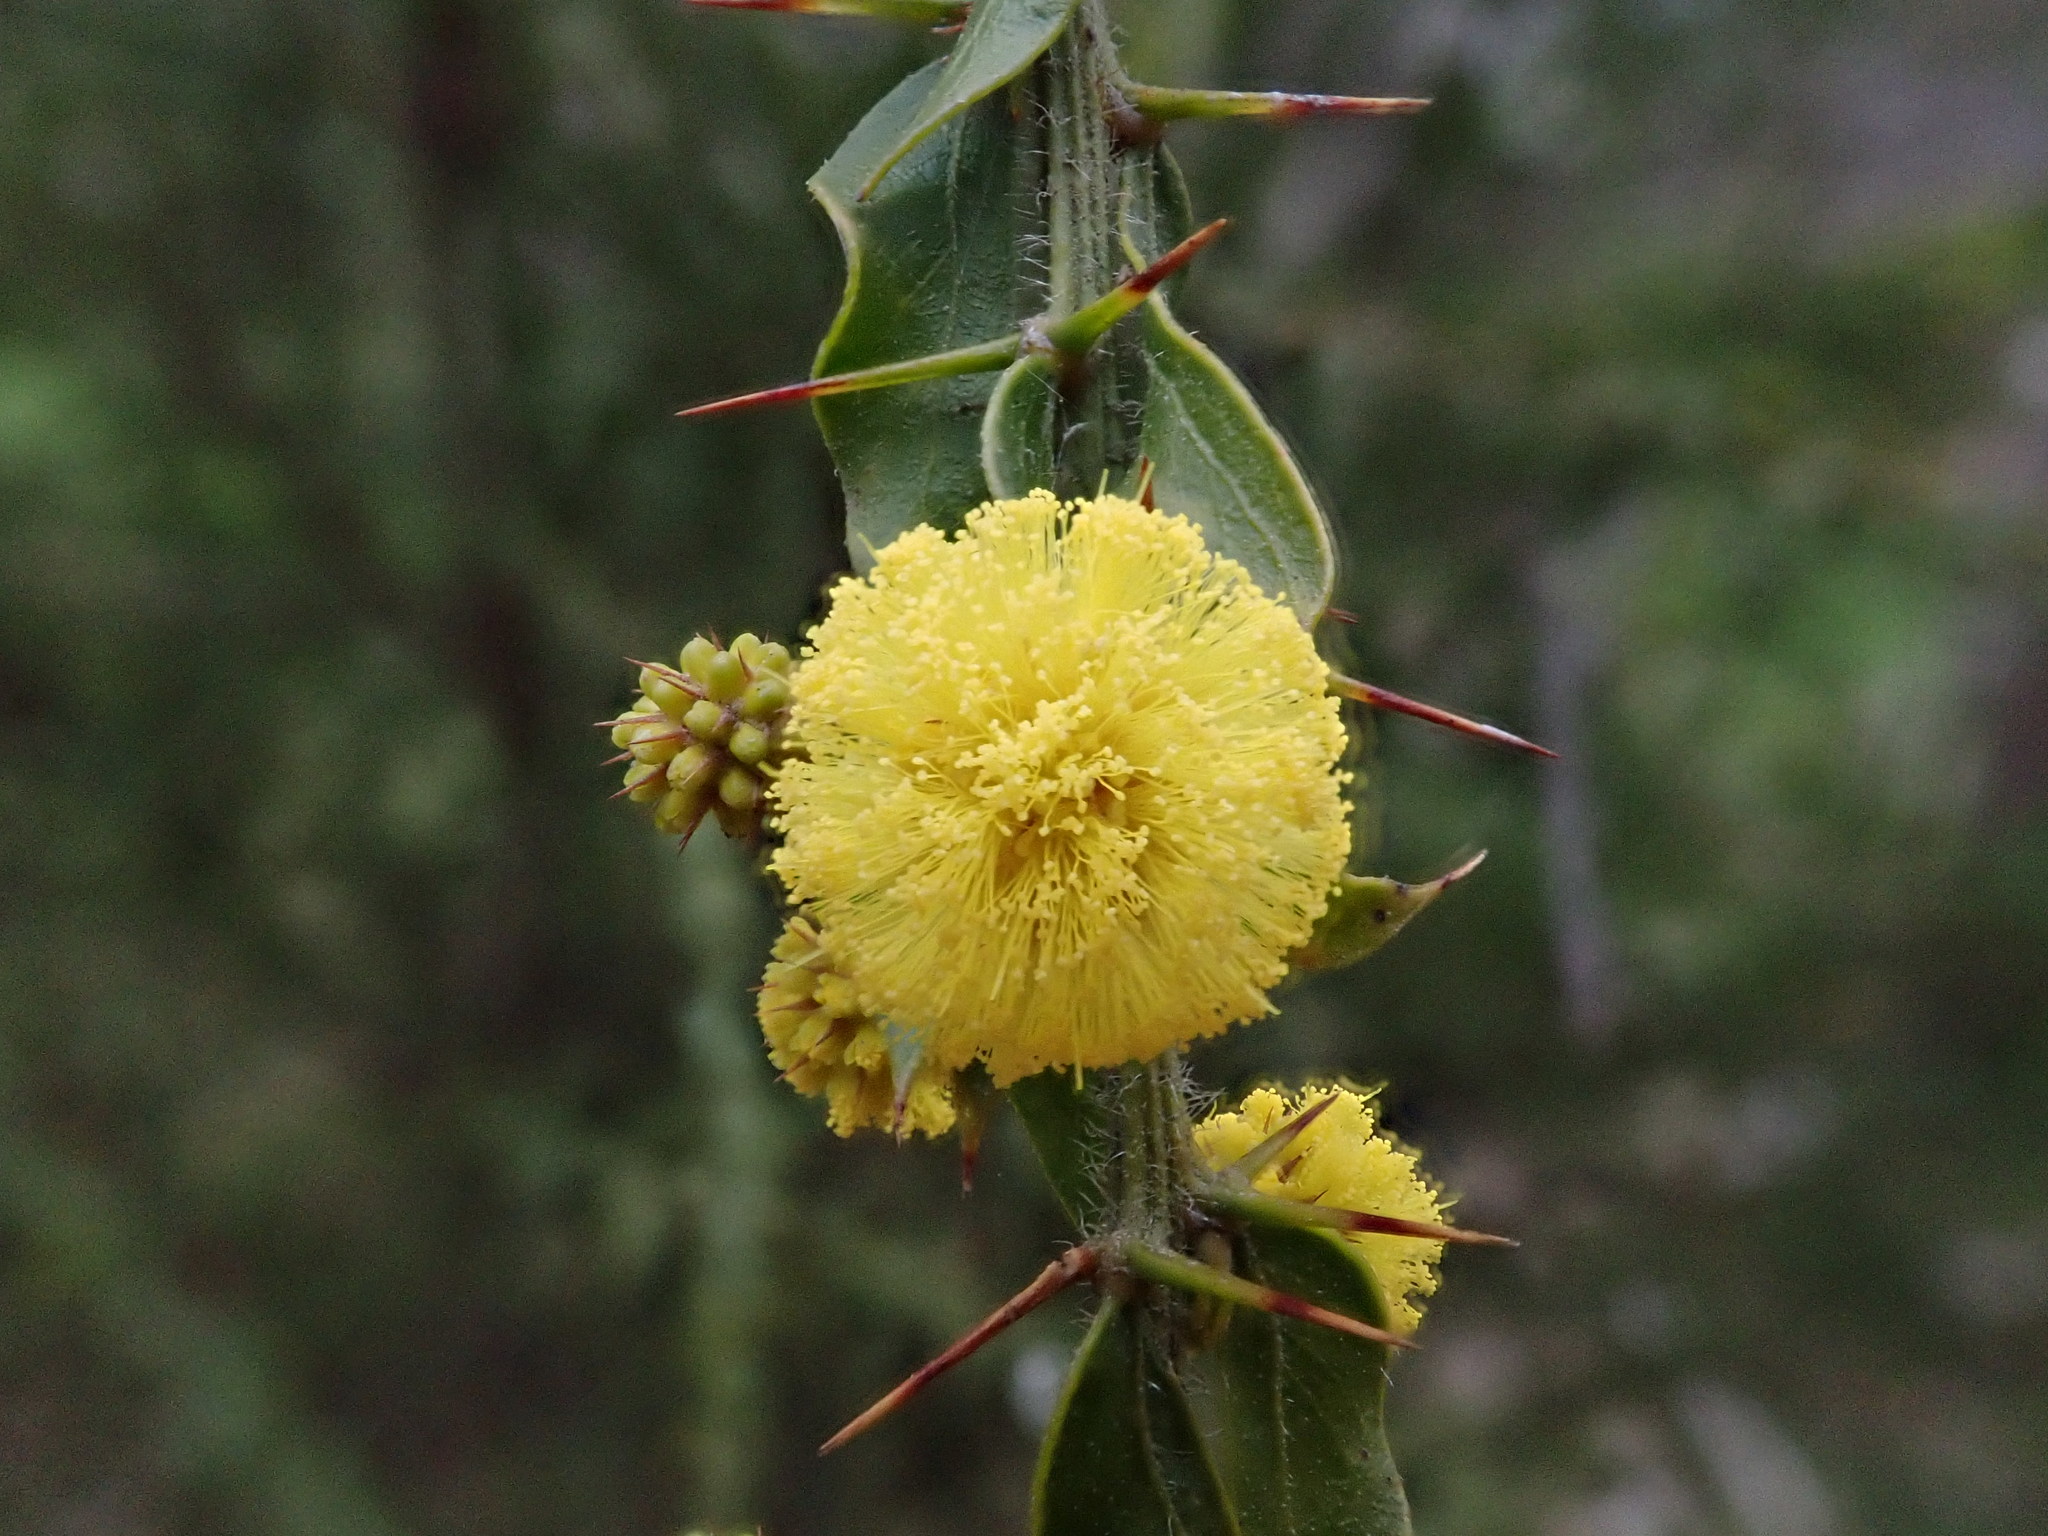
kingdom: Plantae
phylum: Tracheophyta
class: Magnoliopsida
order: Fabales
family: Fabaceae
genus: Acacia
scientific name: Acacia paradoxa
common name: Paradox acacia
